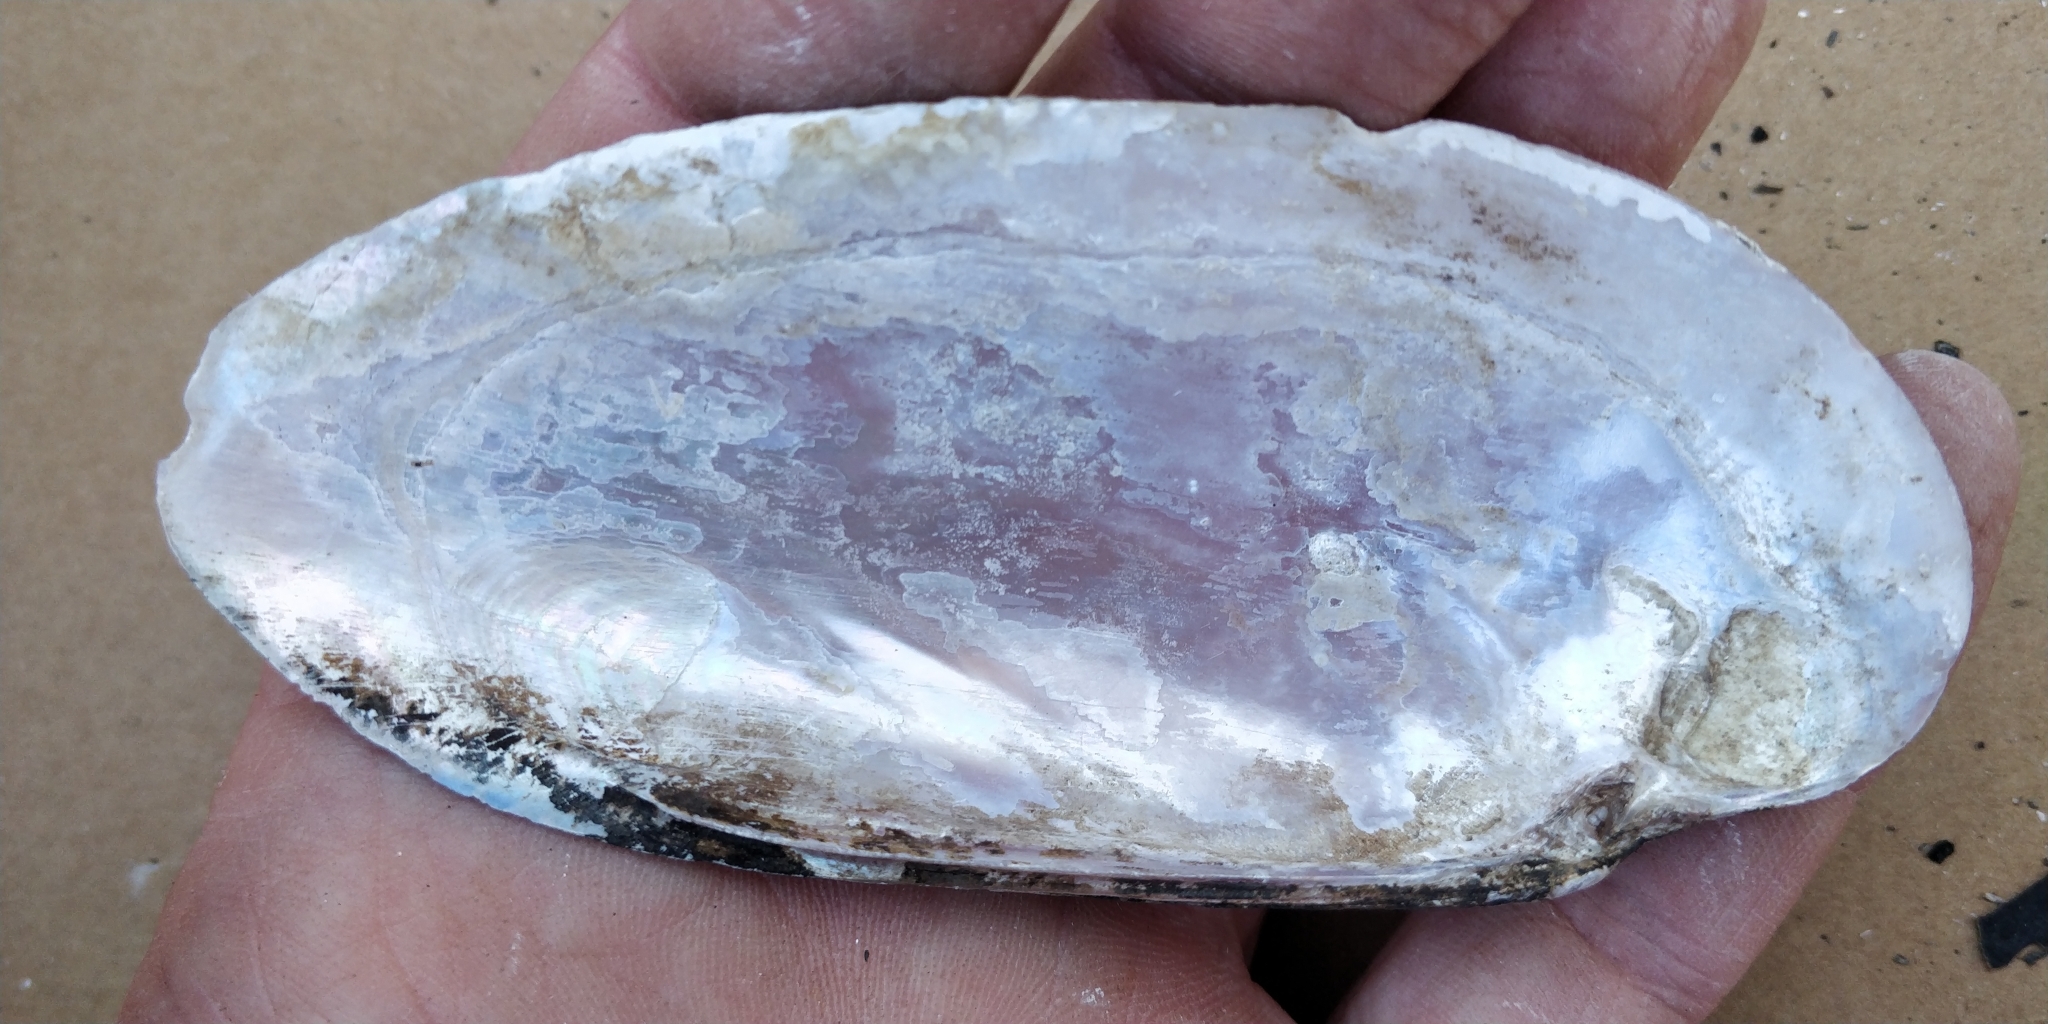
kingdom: Animalia
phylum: Mollusca
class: Bivalvia
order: Unionida
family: Unionidae
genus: Ligumia
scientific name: Ligumia recta
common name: Black sandshell
